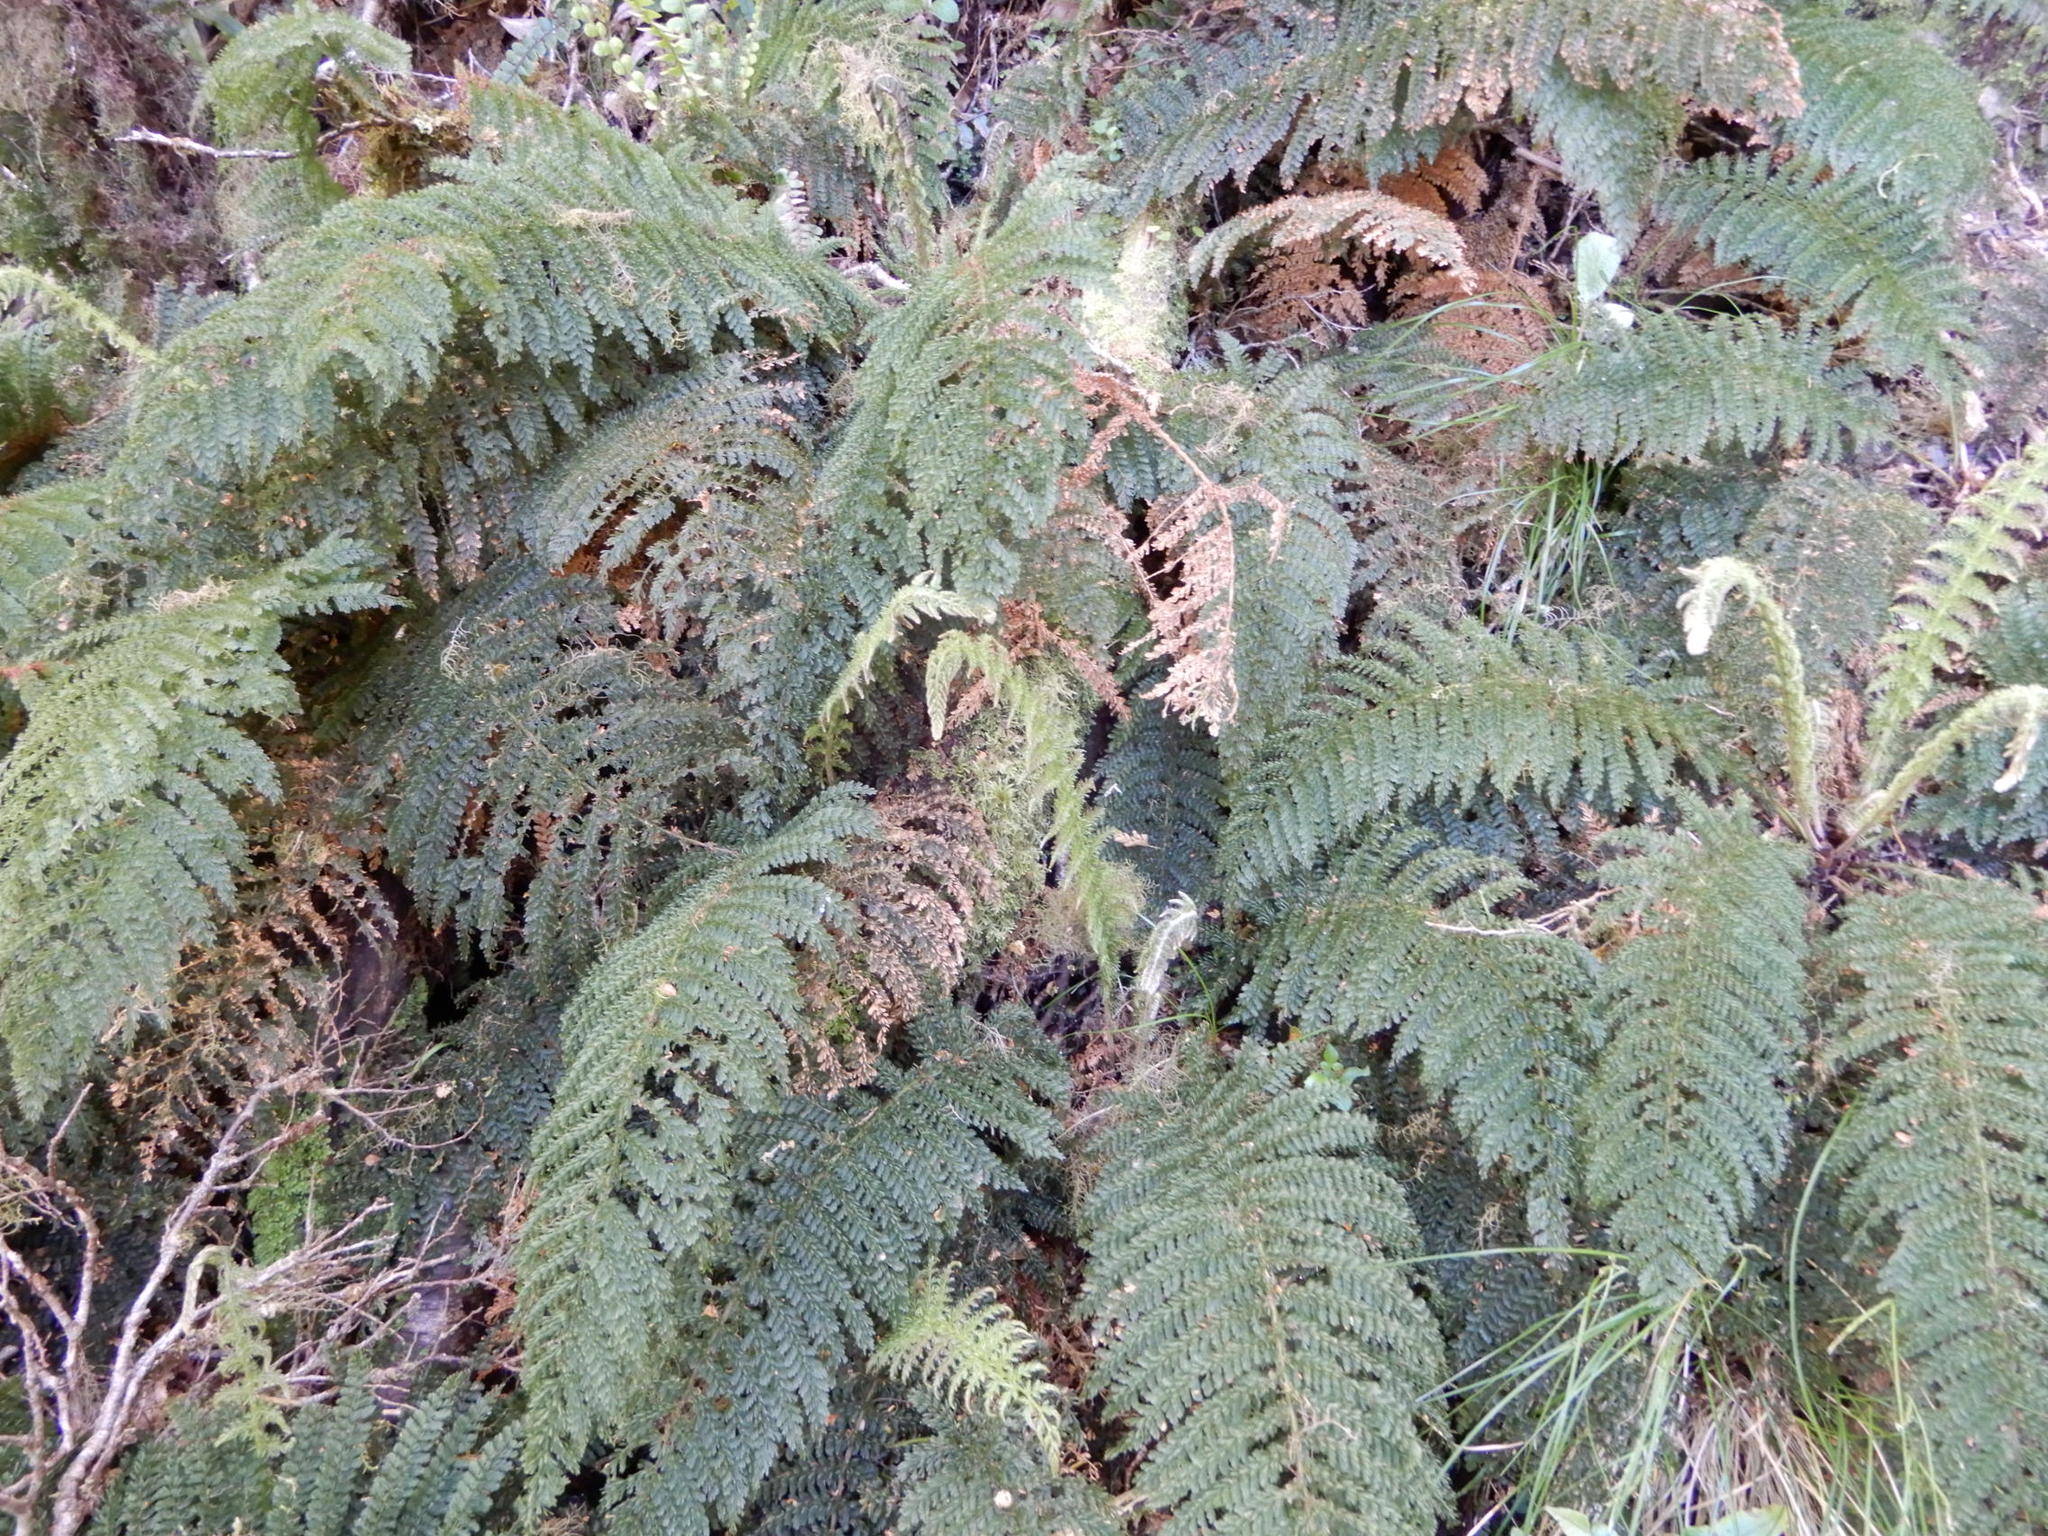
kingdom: Plantae
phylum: Tracheophyta
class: Polypodiopsida
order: Osmundales
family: Osmundaceae
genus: Leptopteris
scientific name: Leptopteris superba
